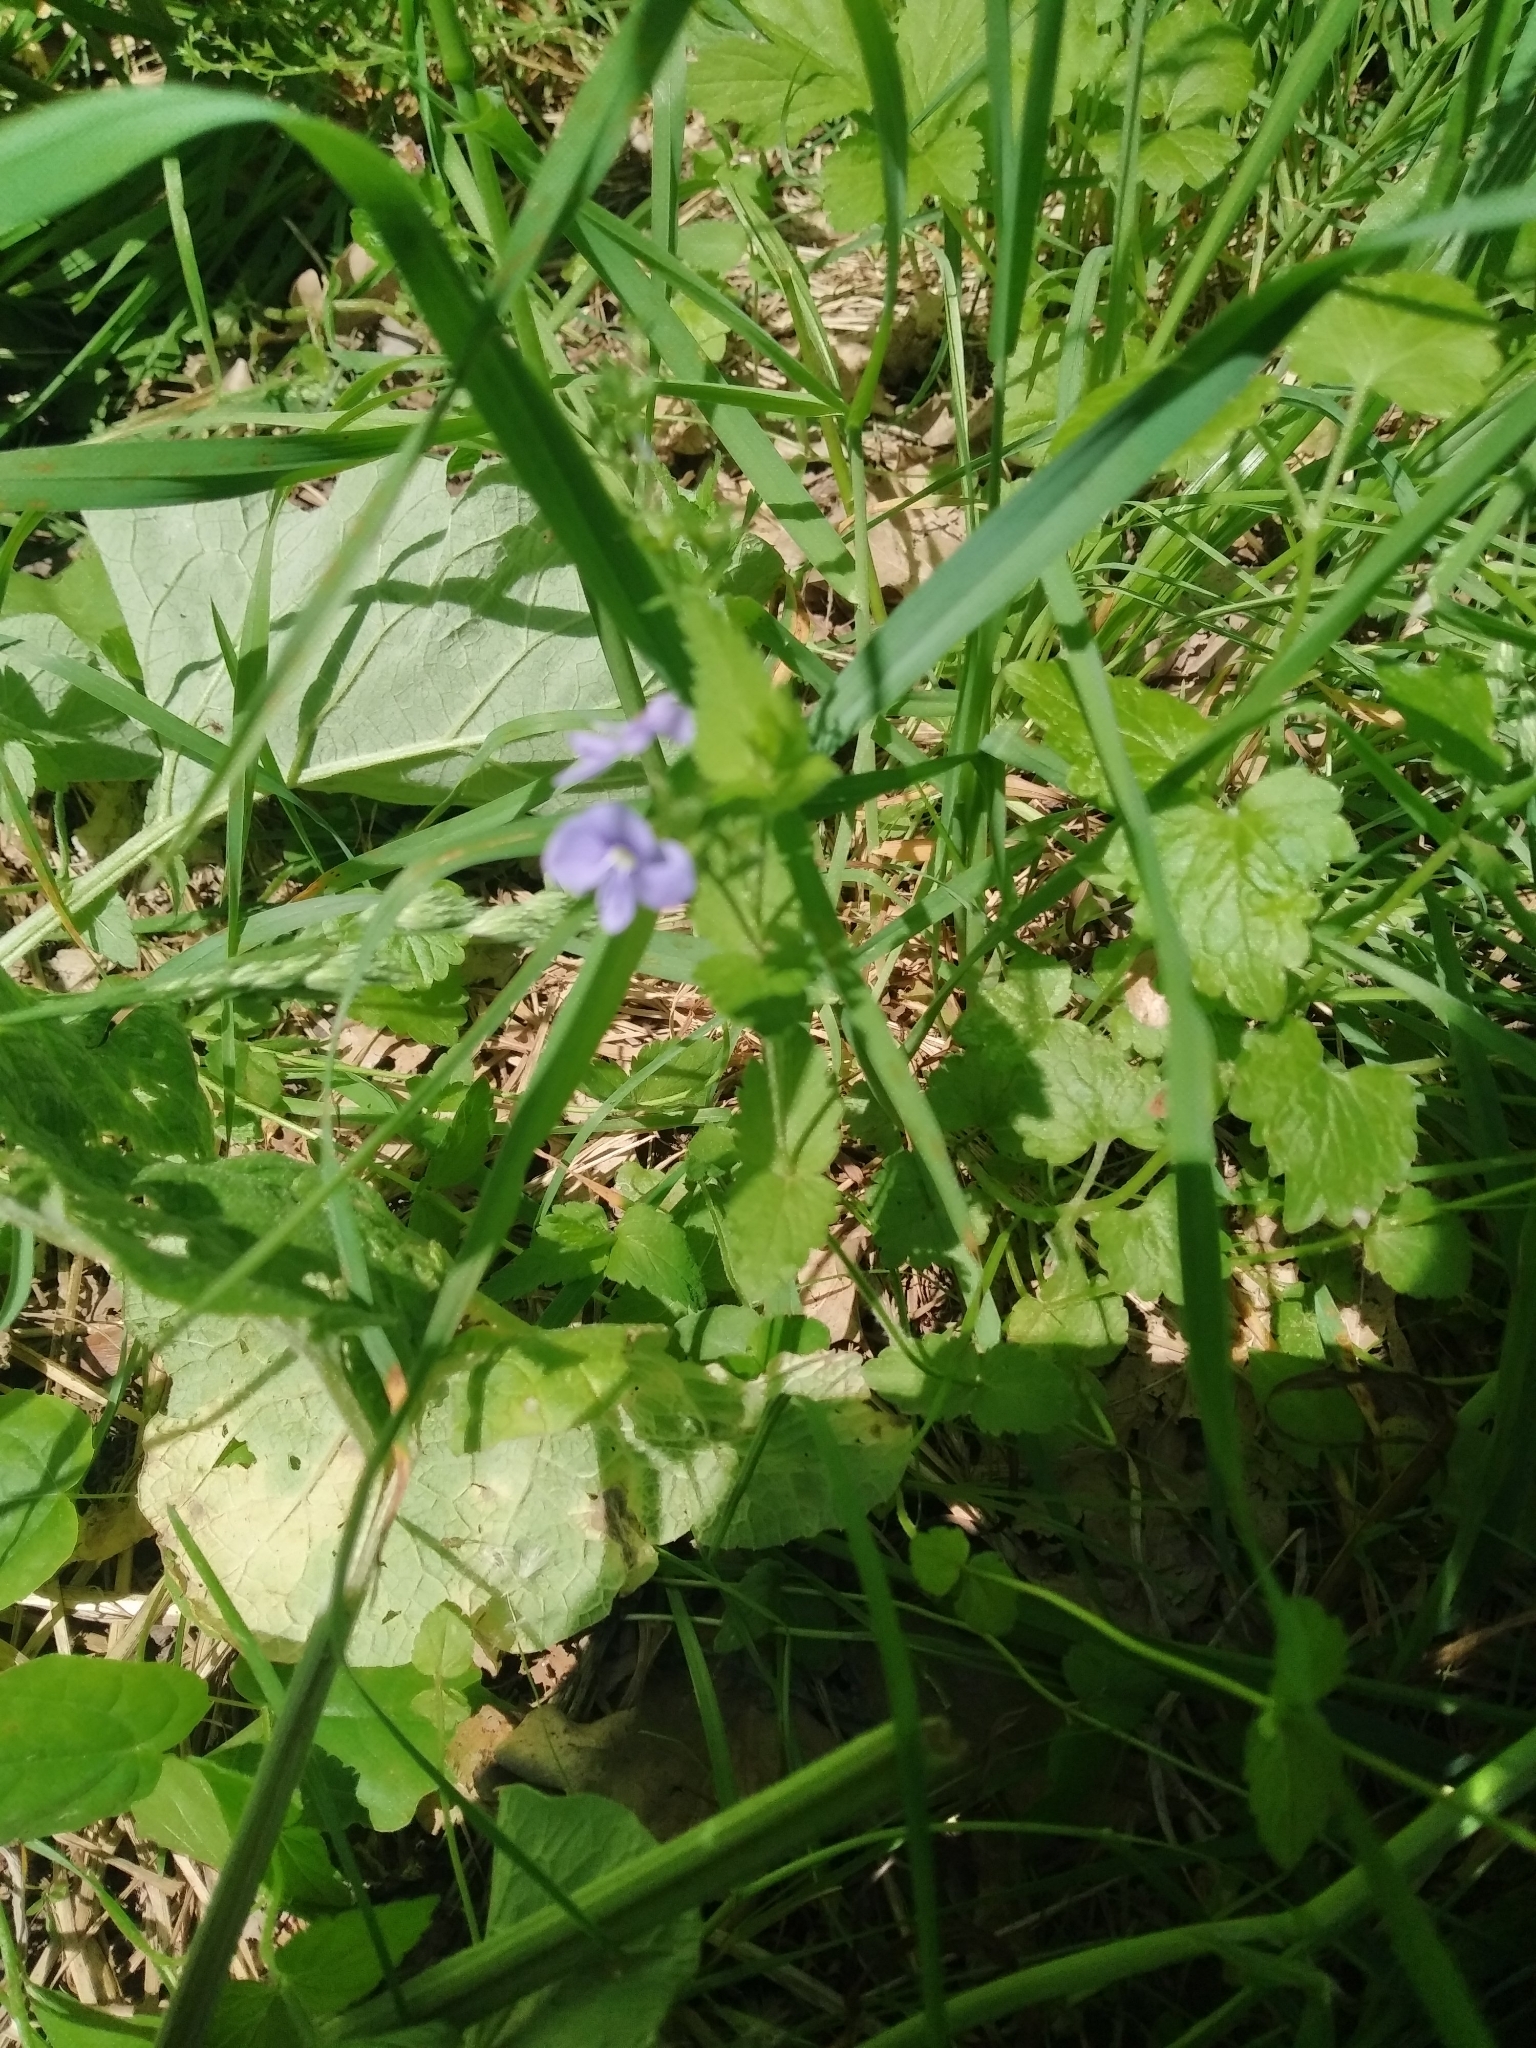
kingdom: Plantae
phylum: Tracheophyta
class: Magnoliopsida
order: Lamiales
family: Plantaginaceae
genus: Veronica
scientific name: Veronica chamaedrys
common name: Germander speedwell
